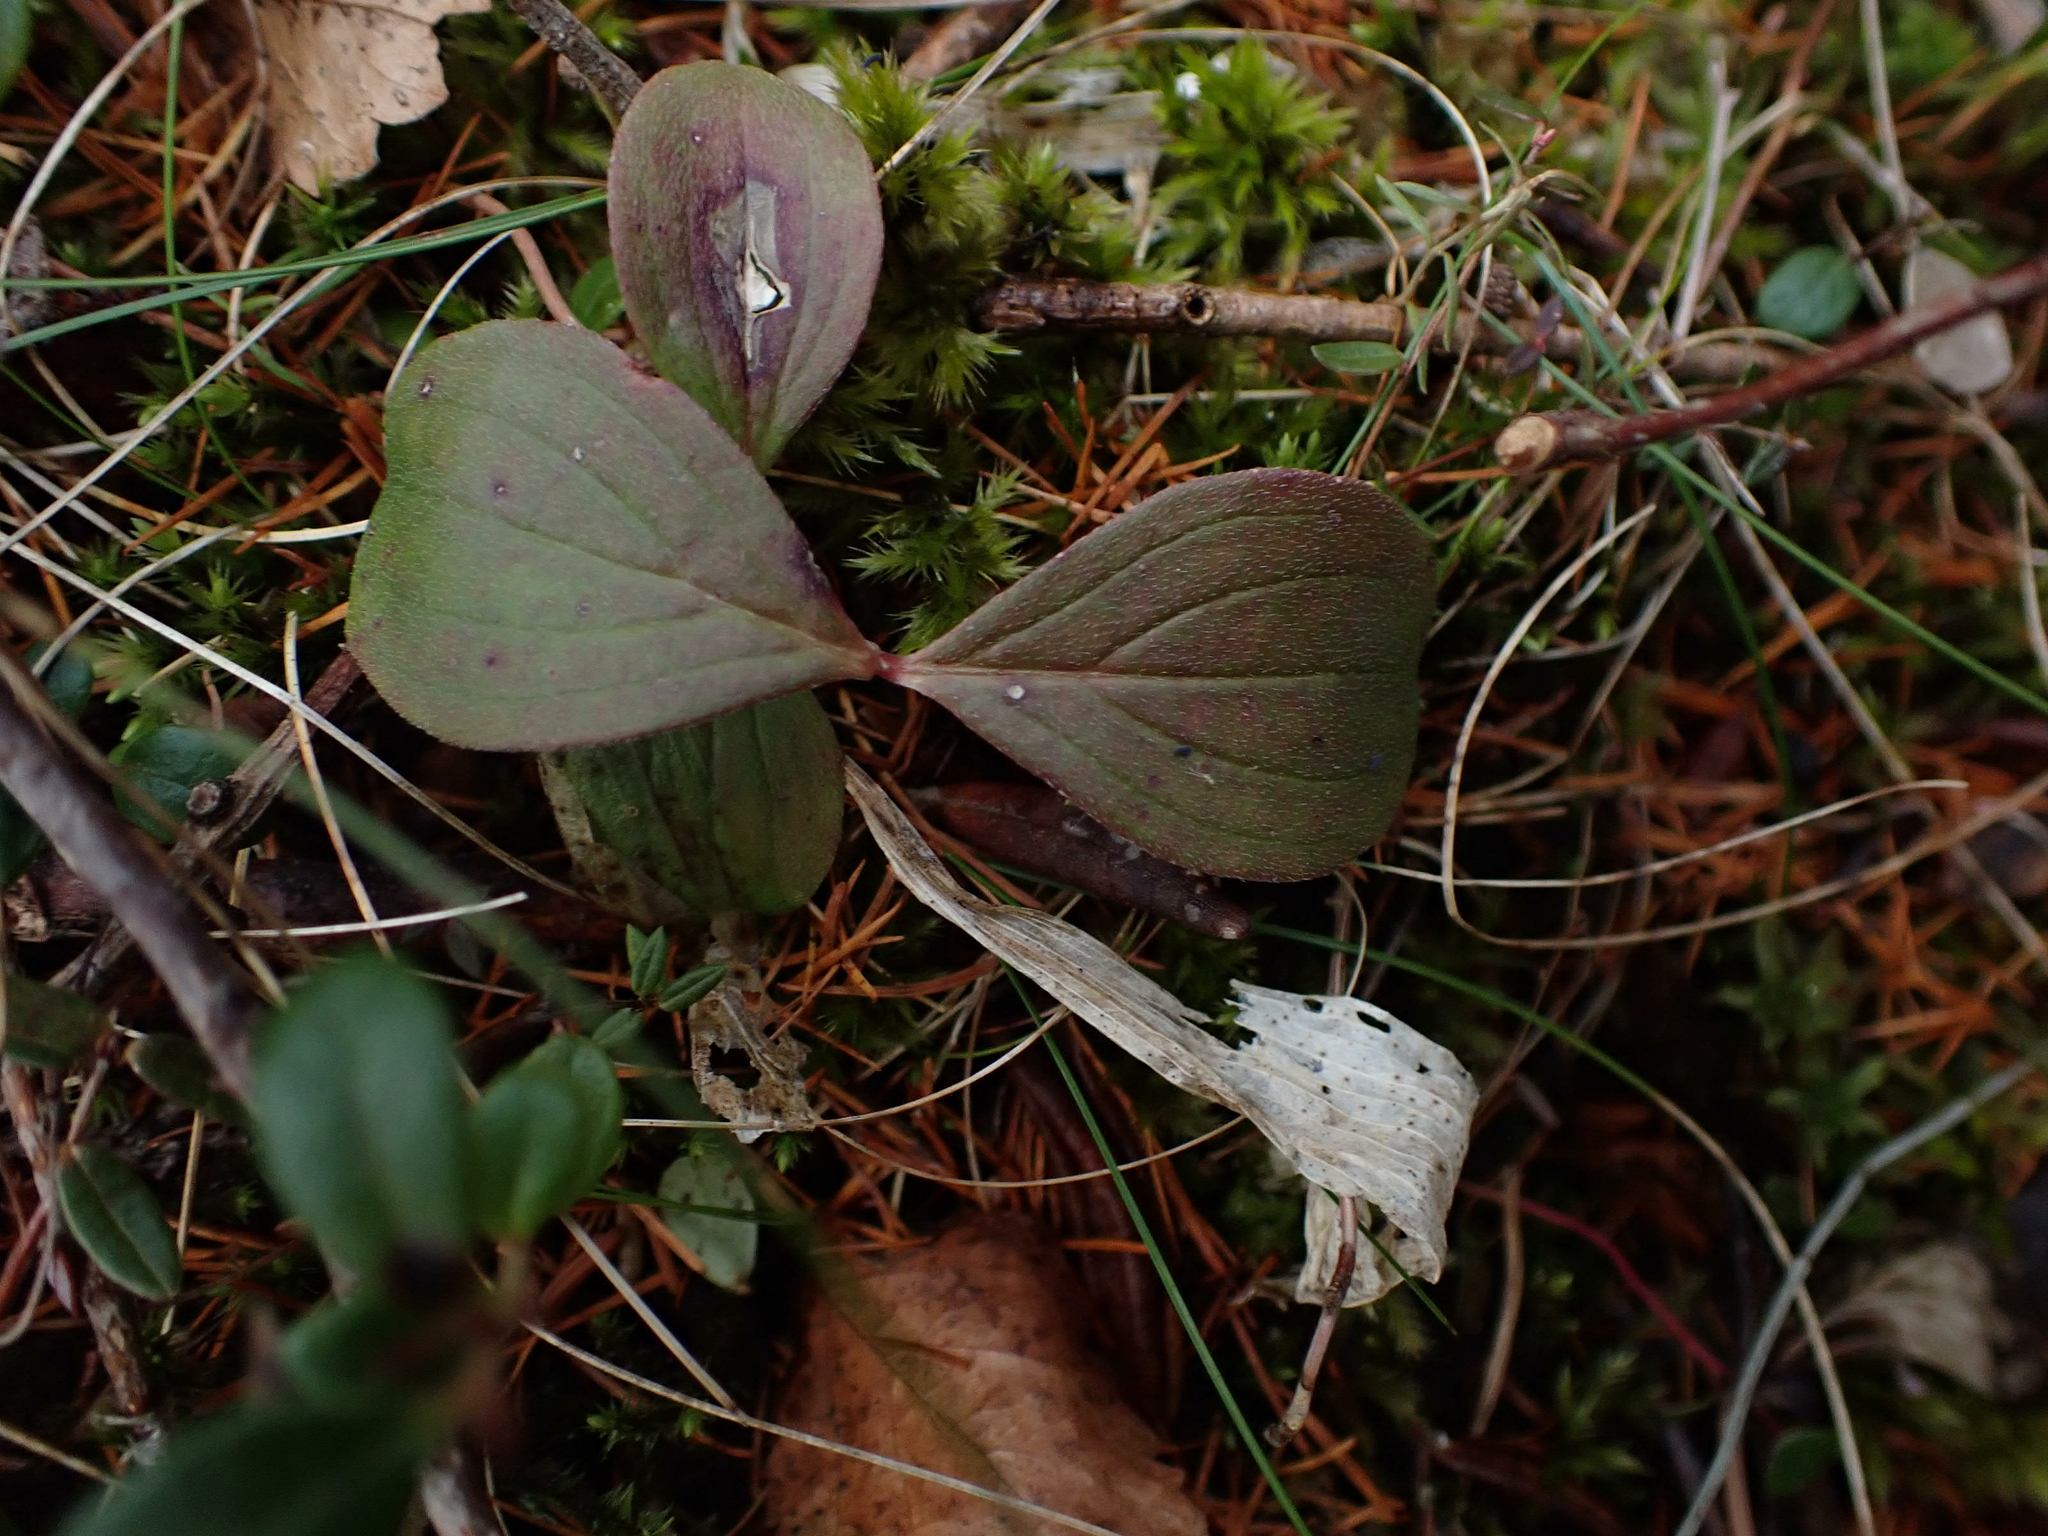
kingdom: Plantae
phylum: Tracheophyta
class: Magnoliopsida
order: Cornales
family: Cornaceae
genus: Cornus
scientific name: Cornus canadensis
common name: Creeping dogwood
